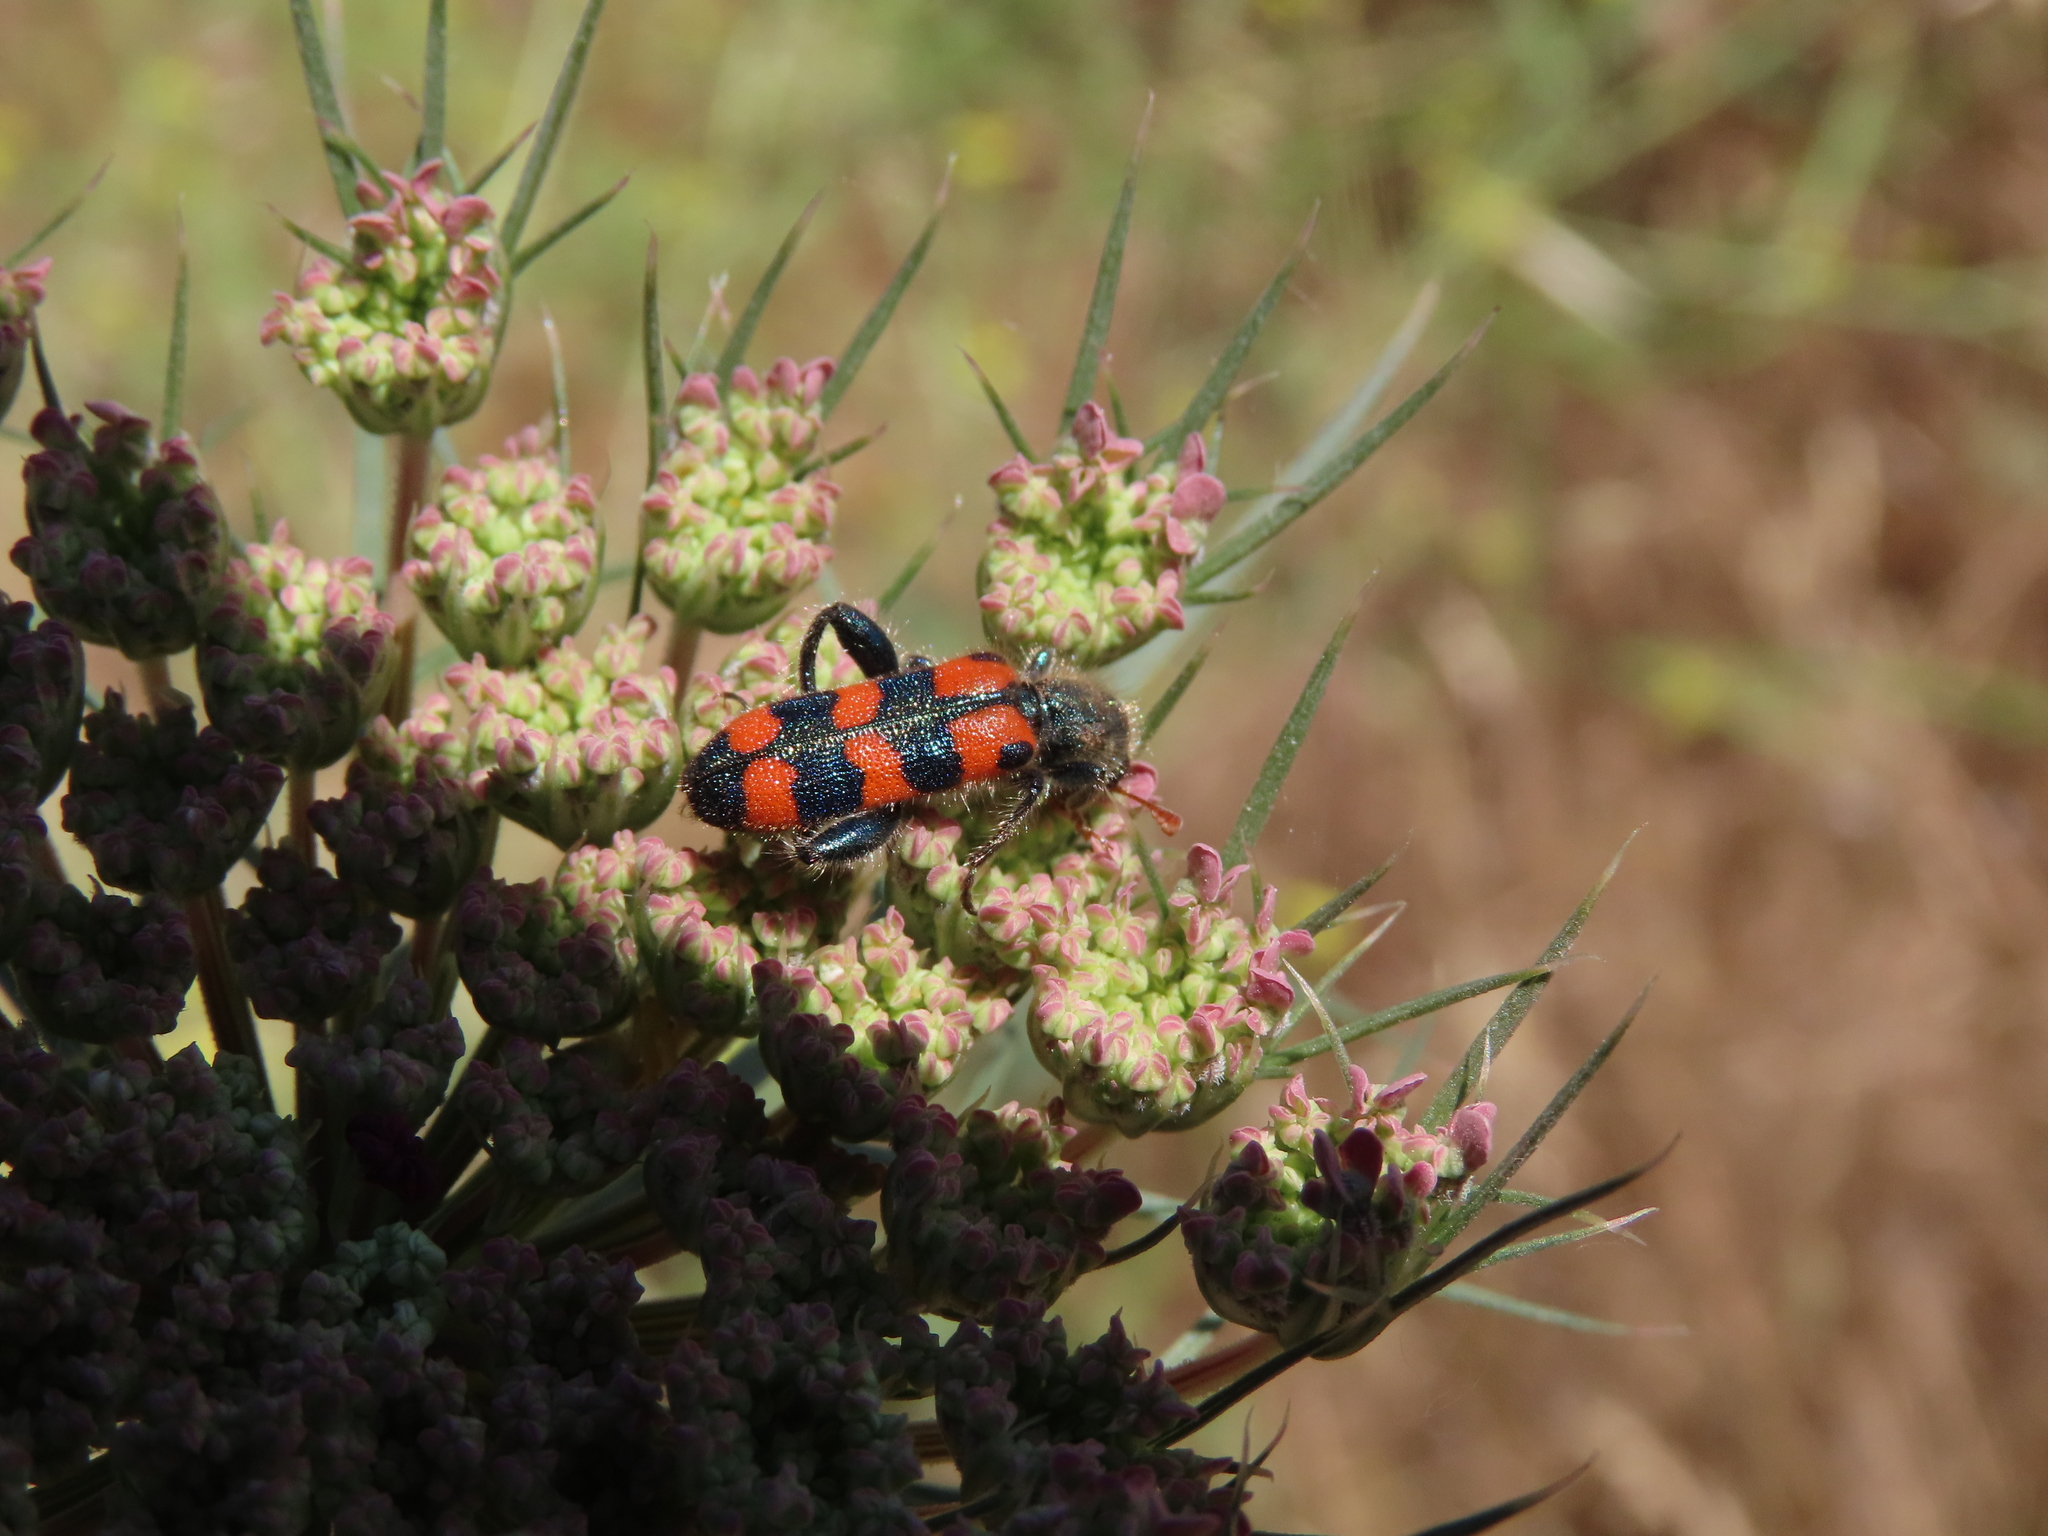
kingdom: Animalia
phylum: Arthropoda
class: Insecta
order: Coleoptera
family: Cleridae
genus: Trichodes
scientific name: Trichodes leucopsideus
